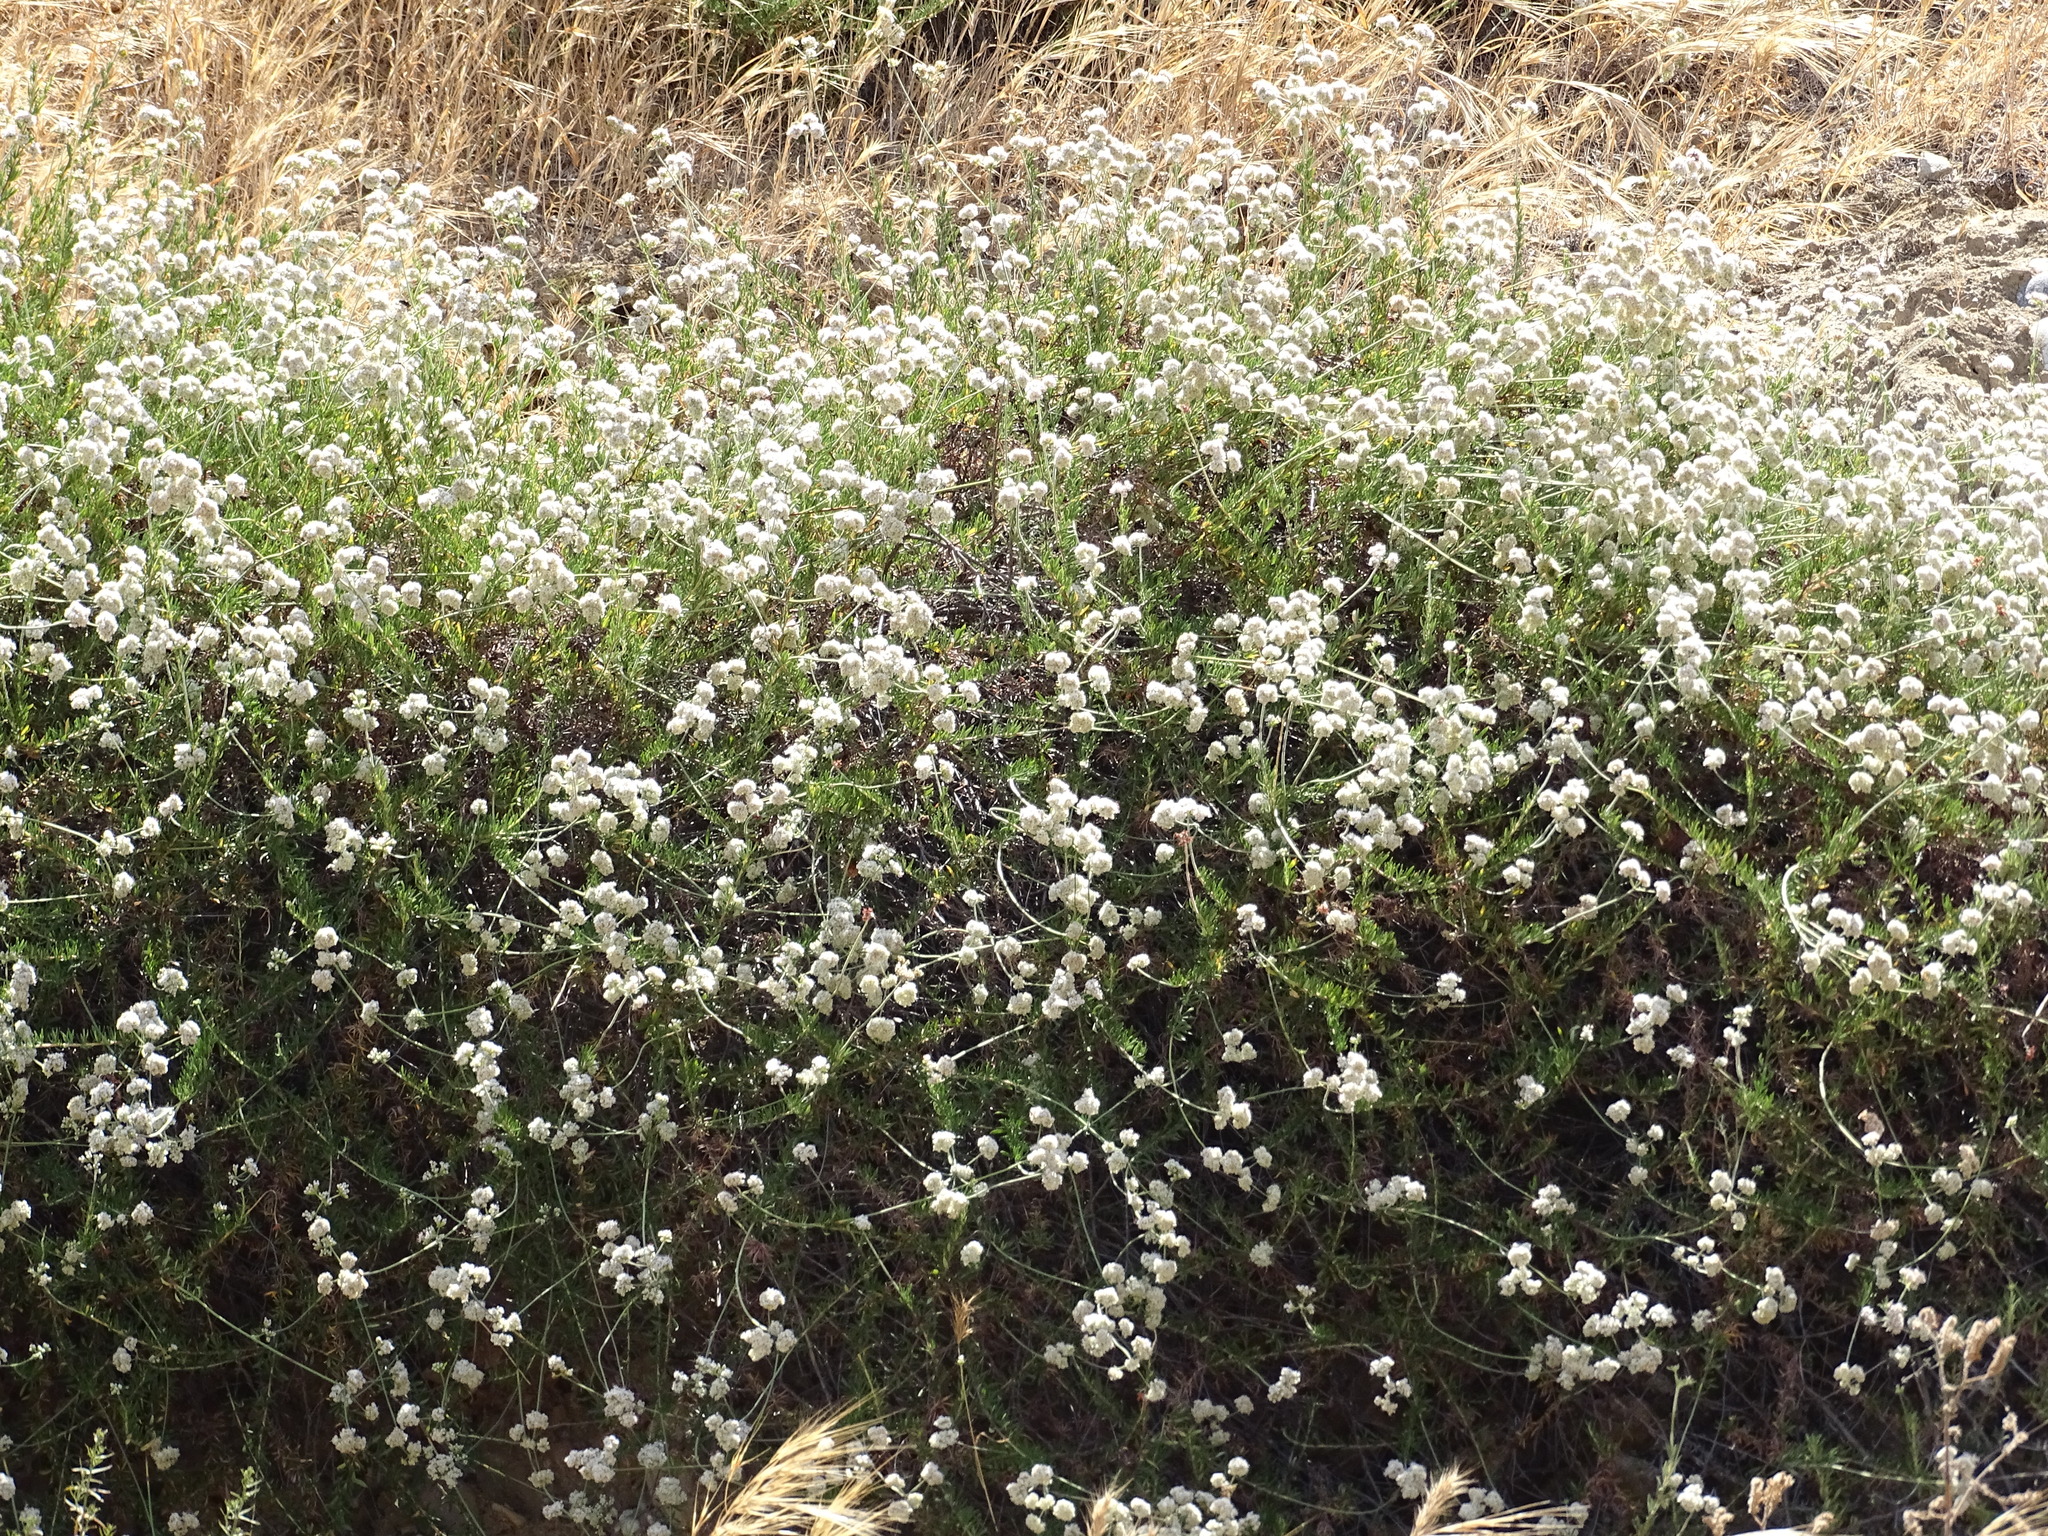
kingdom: Plantae
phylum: Tracheophyta
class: Magnoliopsida
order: Caryophyllales
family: Polygonaceae
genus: Eriogonum
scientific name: Eriogonum fasciculatum
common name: California wild buckwheat
